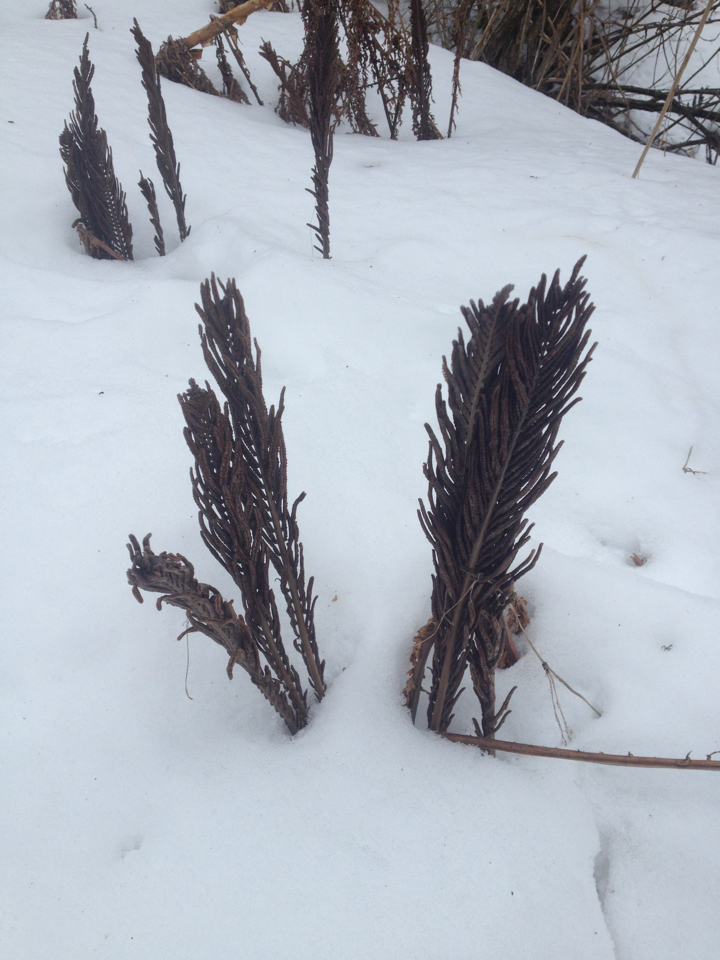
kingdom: Plantae
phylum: Tracheophyta
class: Polypodiopsida
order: Polypodiales
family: Onocleaceae
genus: Matteuccia
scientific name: Matteuccia struthiopteris
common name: Ostrich fern
